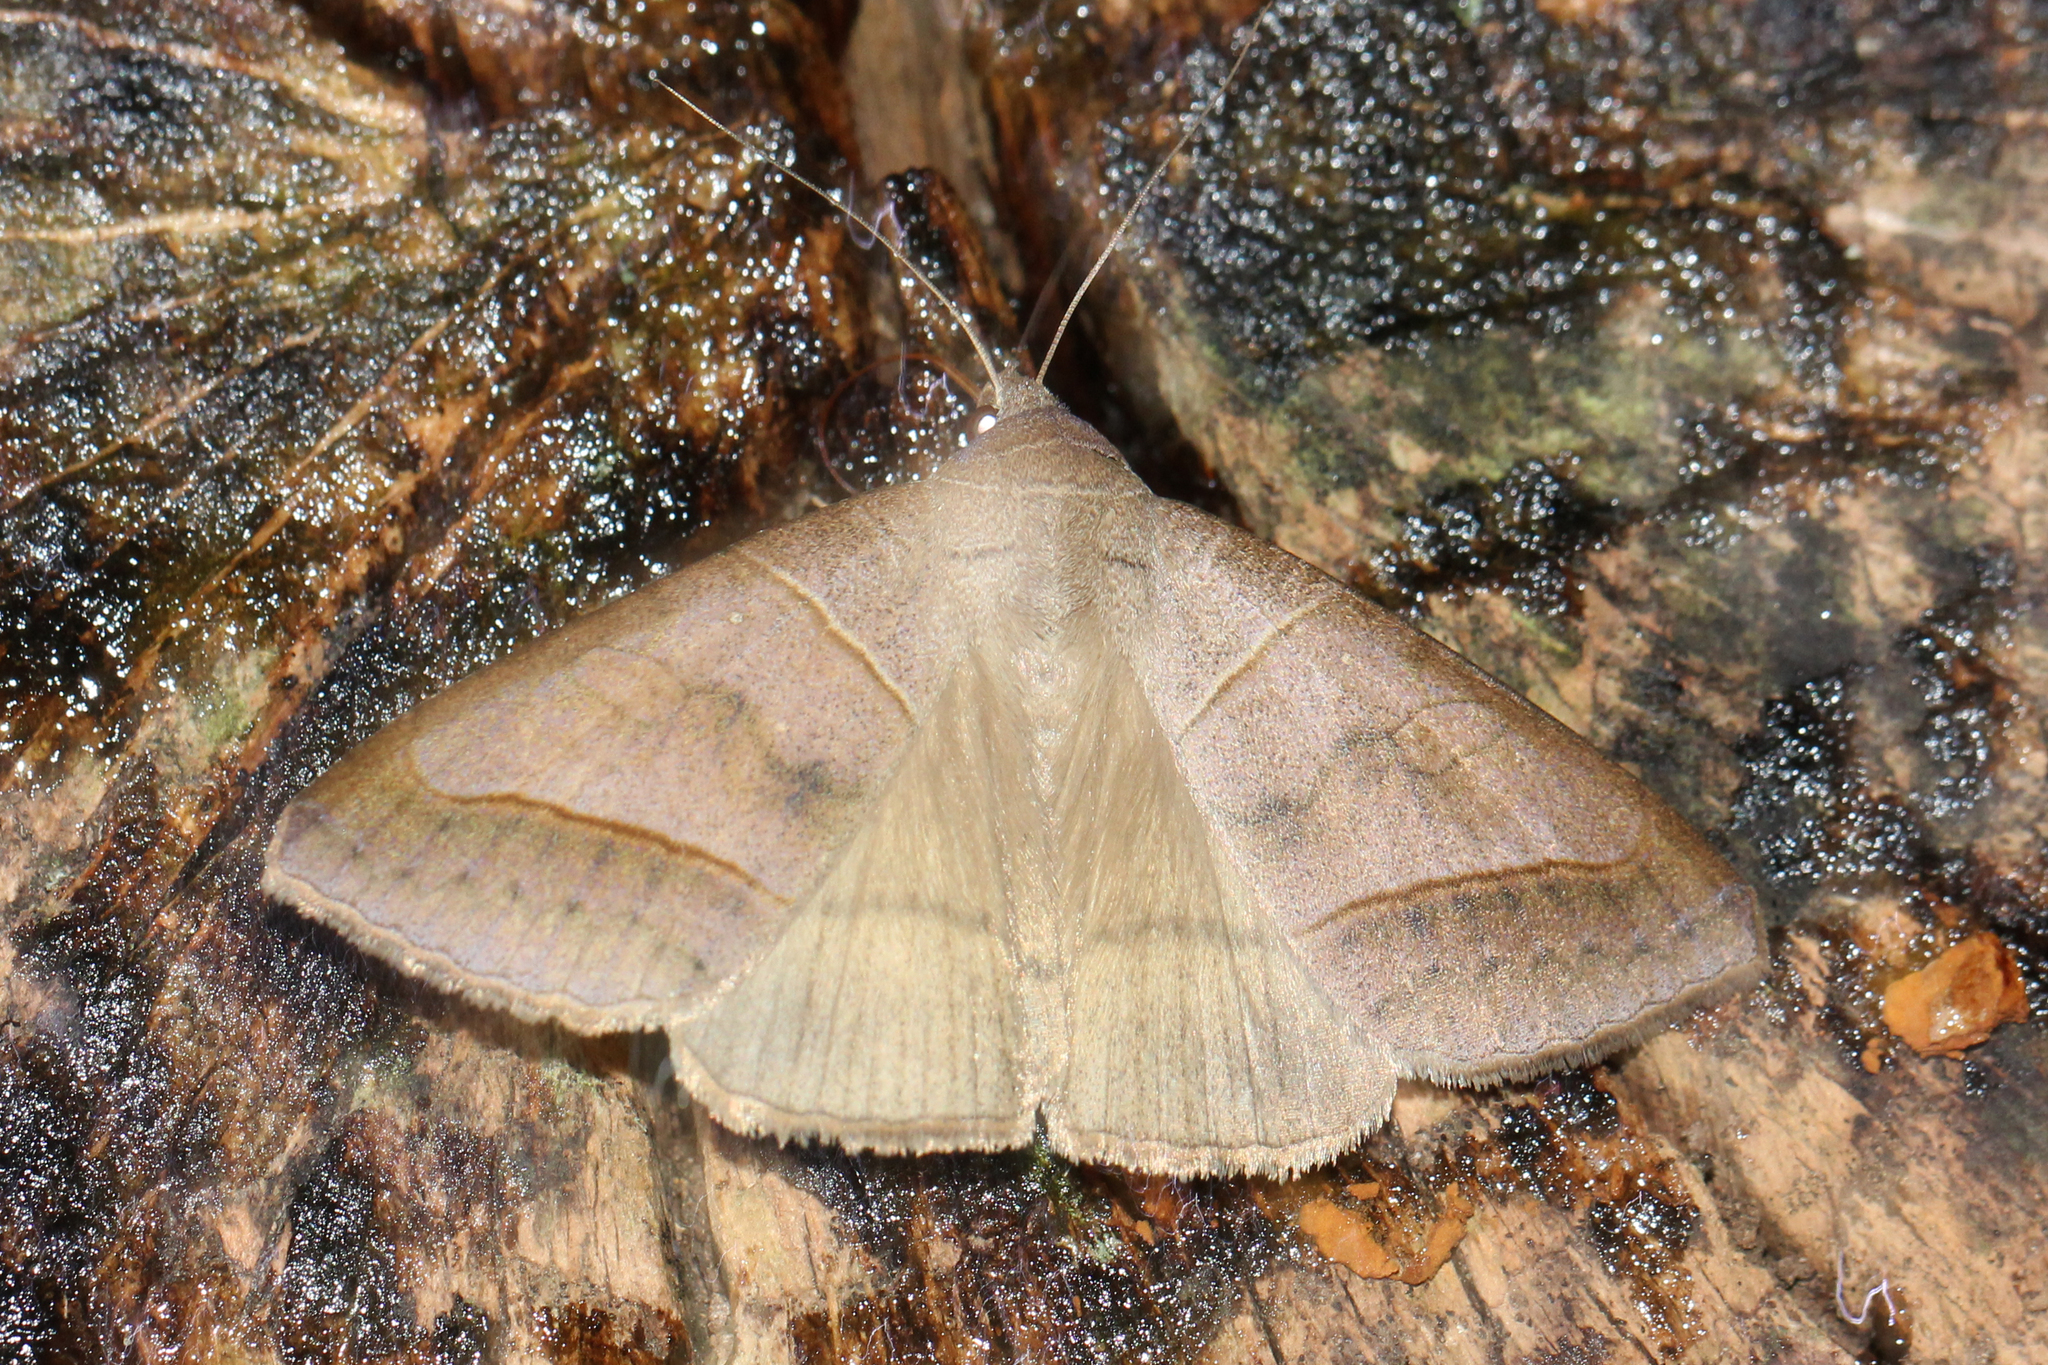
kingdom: Animalia
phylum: Arthropoda
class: Insecta
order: Lepidoptera
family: Erebidae
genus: Mocis
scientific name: Mocis texana
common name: Texas mocis moth
